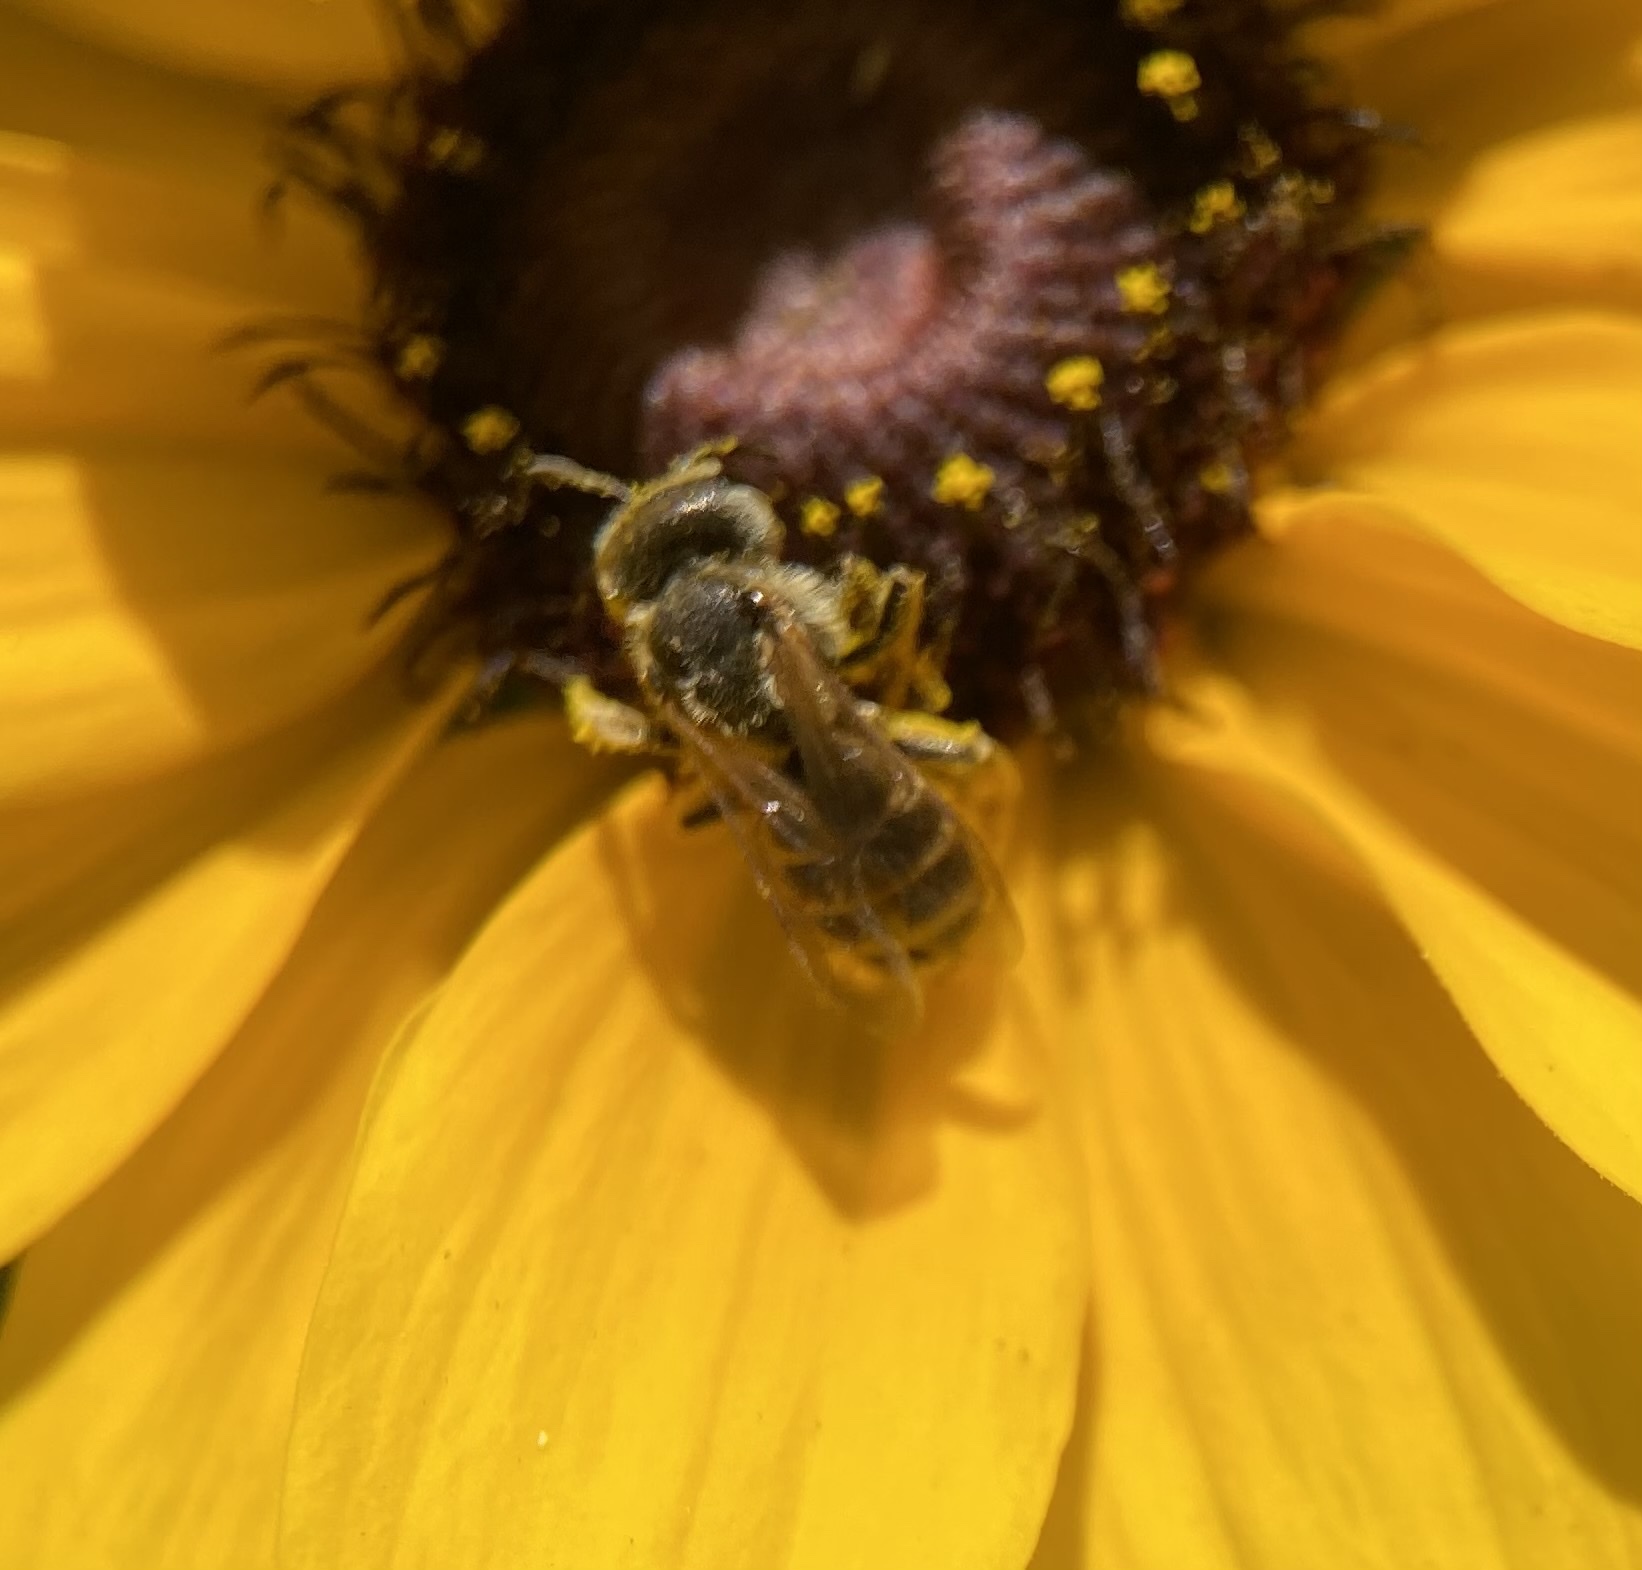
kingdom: Animalia
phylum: Arthropoda
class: Insecta
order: Hymenoptera
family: Halictidae
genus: Halictus
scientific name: Halictus ligatus
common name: Ligated furrow bee
